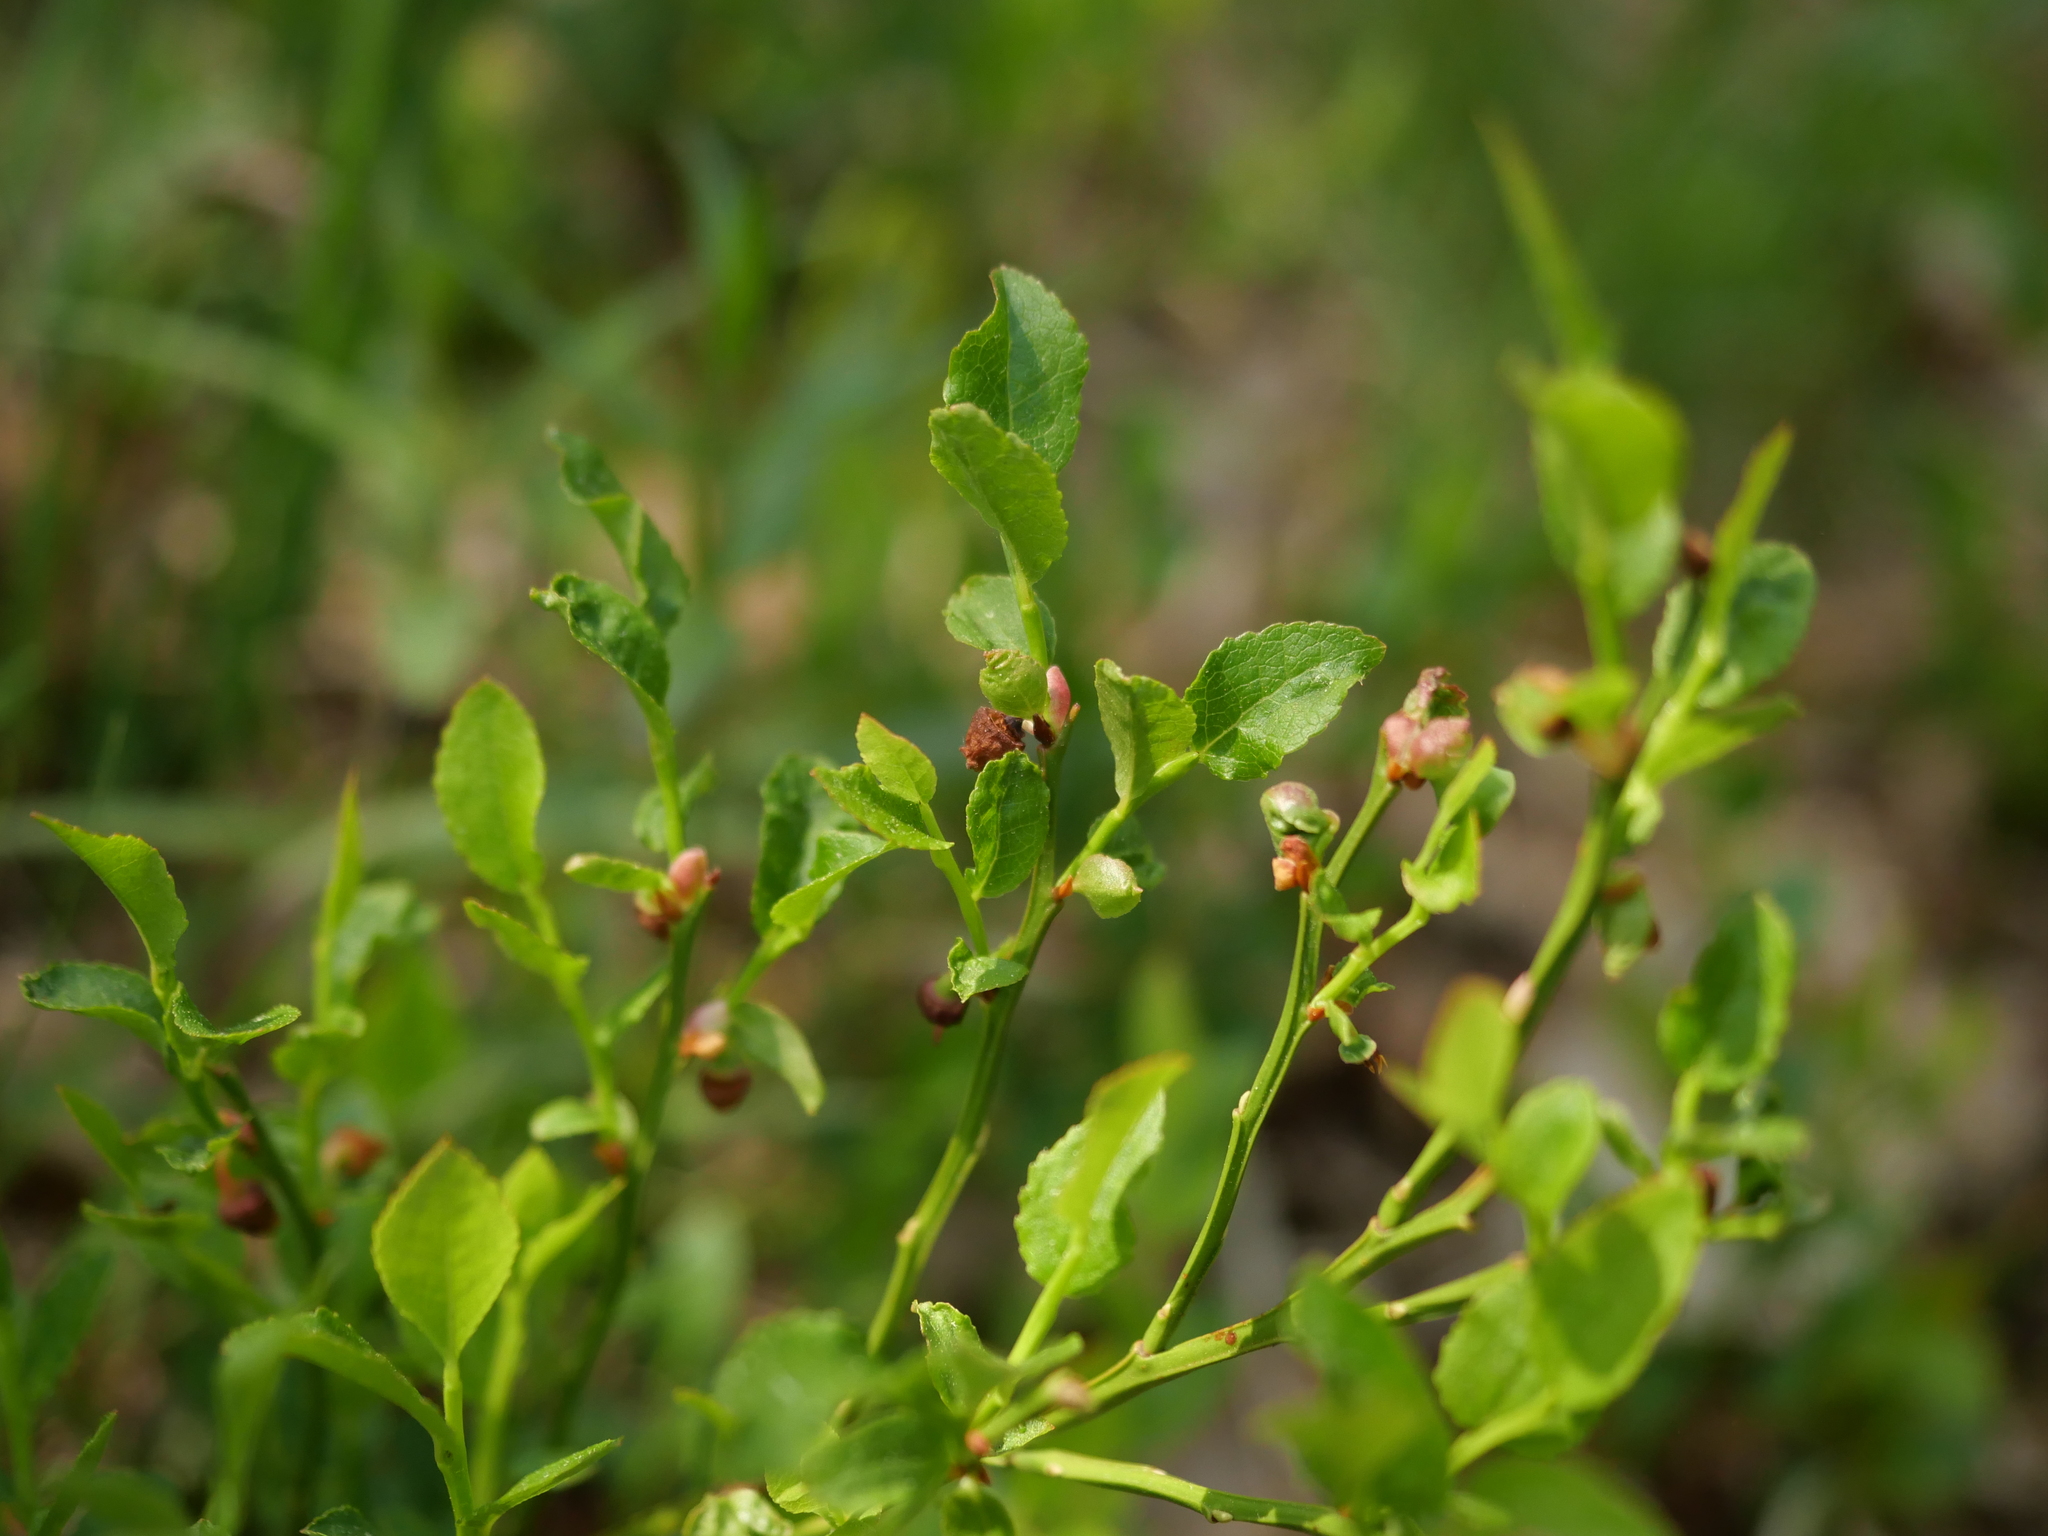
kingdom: Plantae
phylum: Tracheophyta
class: Magnoliopsida
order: Ericales
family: Ericaceae
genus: Vaccinium
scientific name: Vaccinium myrtillus
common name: Bilberry
